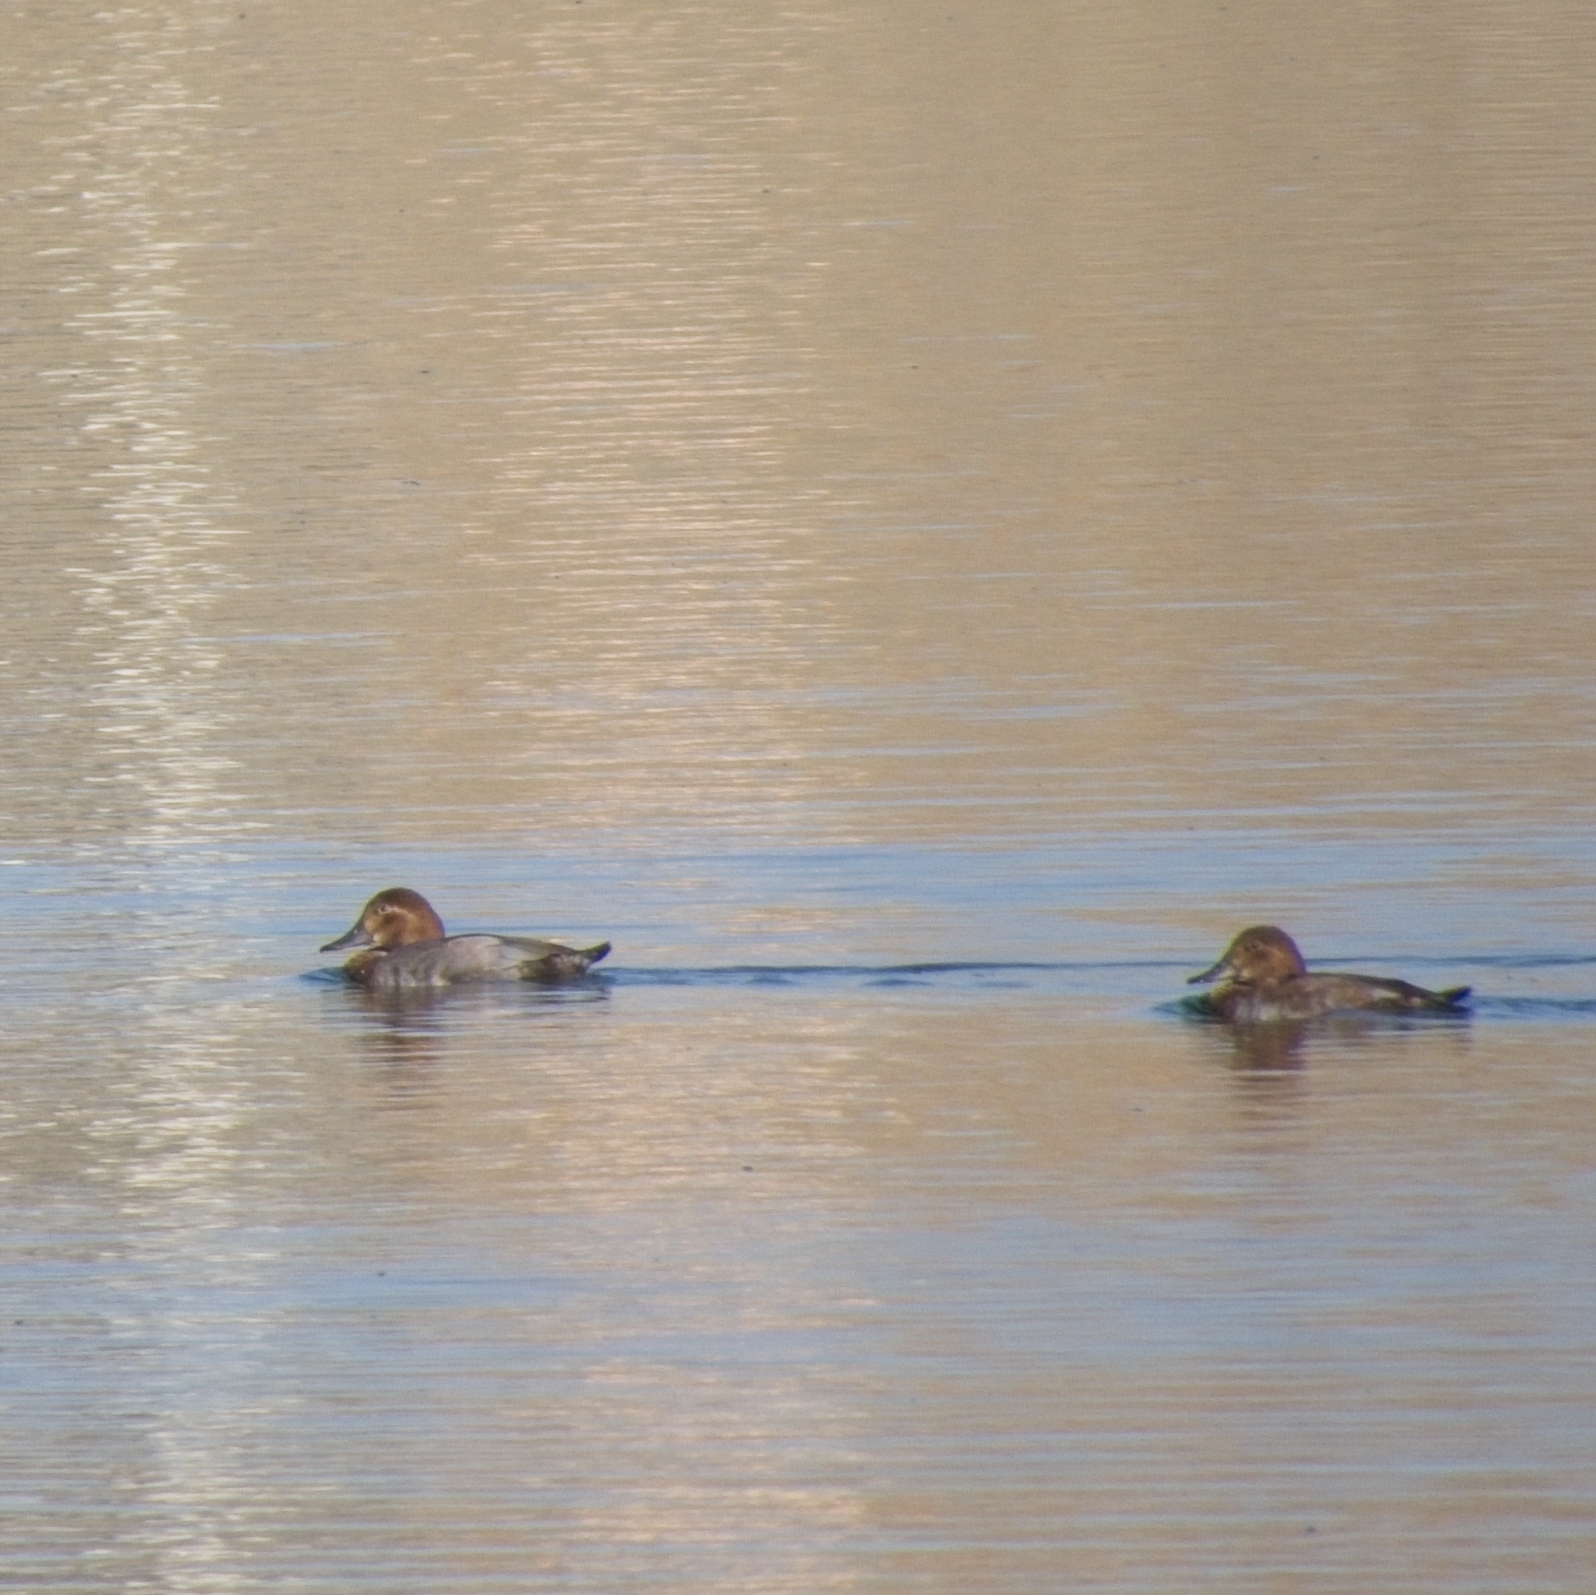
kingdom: Animalia
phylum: Chordata
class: Aves
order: Anseriformes
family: Anatidae
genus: Aythya
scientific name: Aythya ferina
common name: Common pochard
